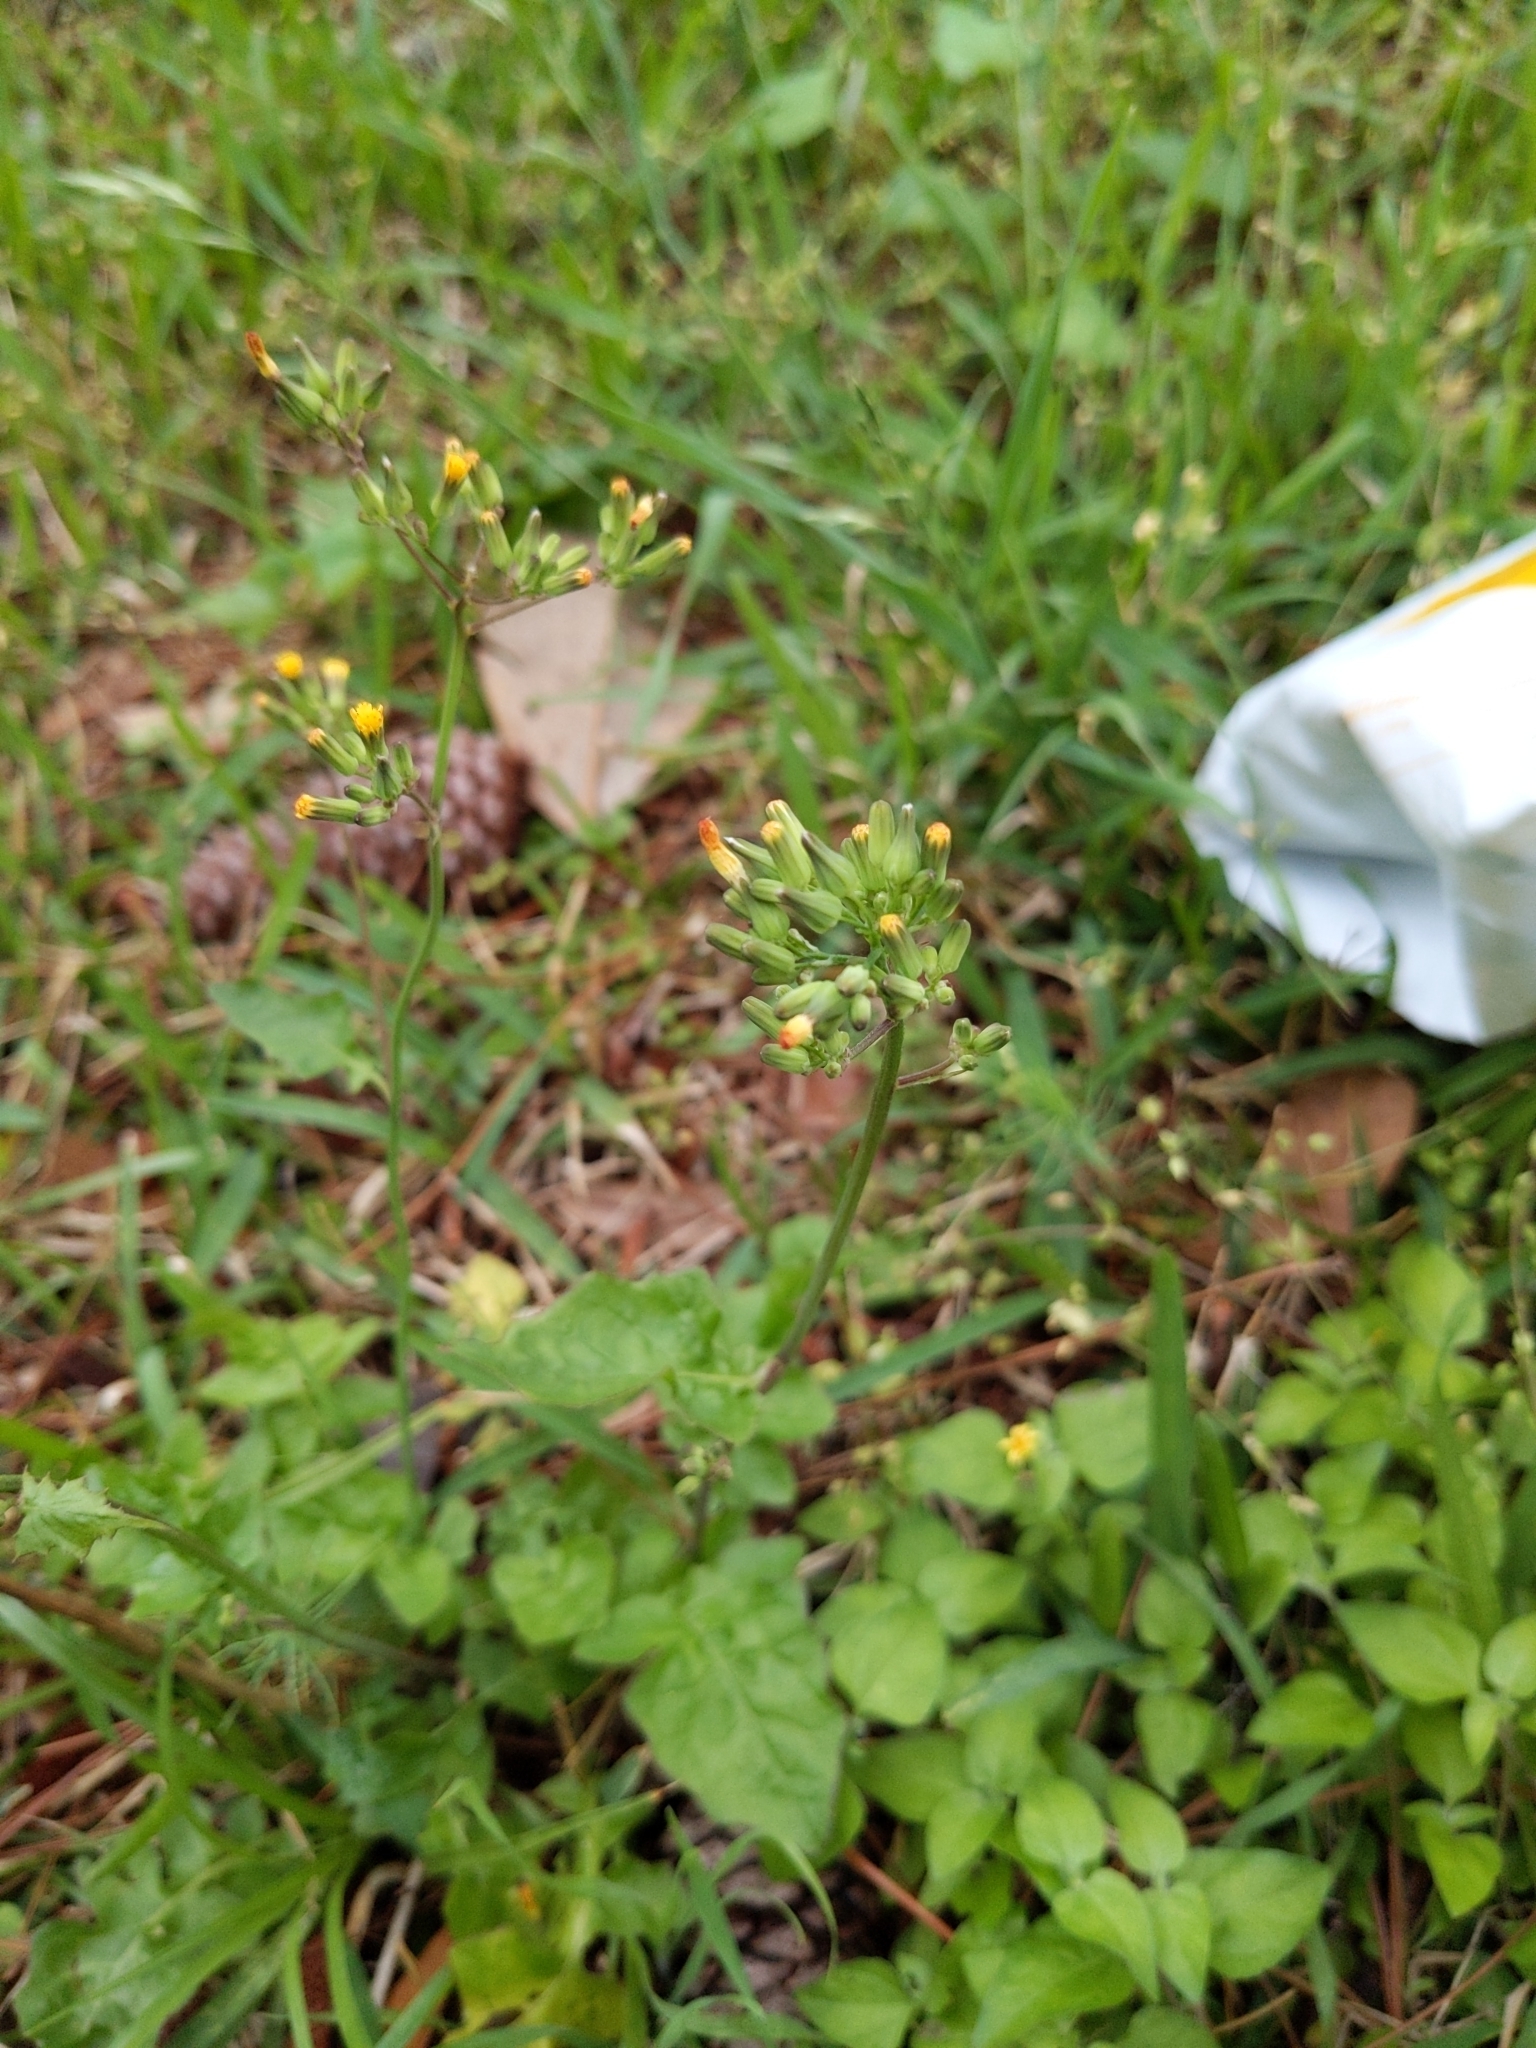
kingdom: Plantae
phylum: Tracheophyta
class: Magnoliopsida
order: Asterales
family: Asteraceae
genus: Youngia
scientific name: Youngia japonica
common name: Oriental false hawksbeard
